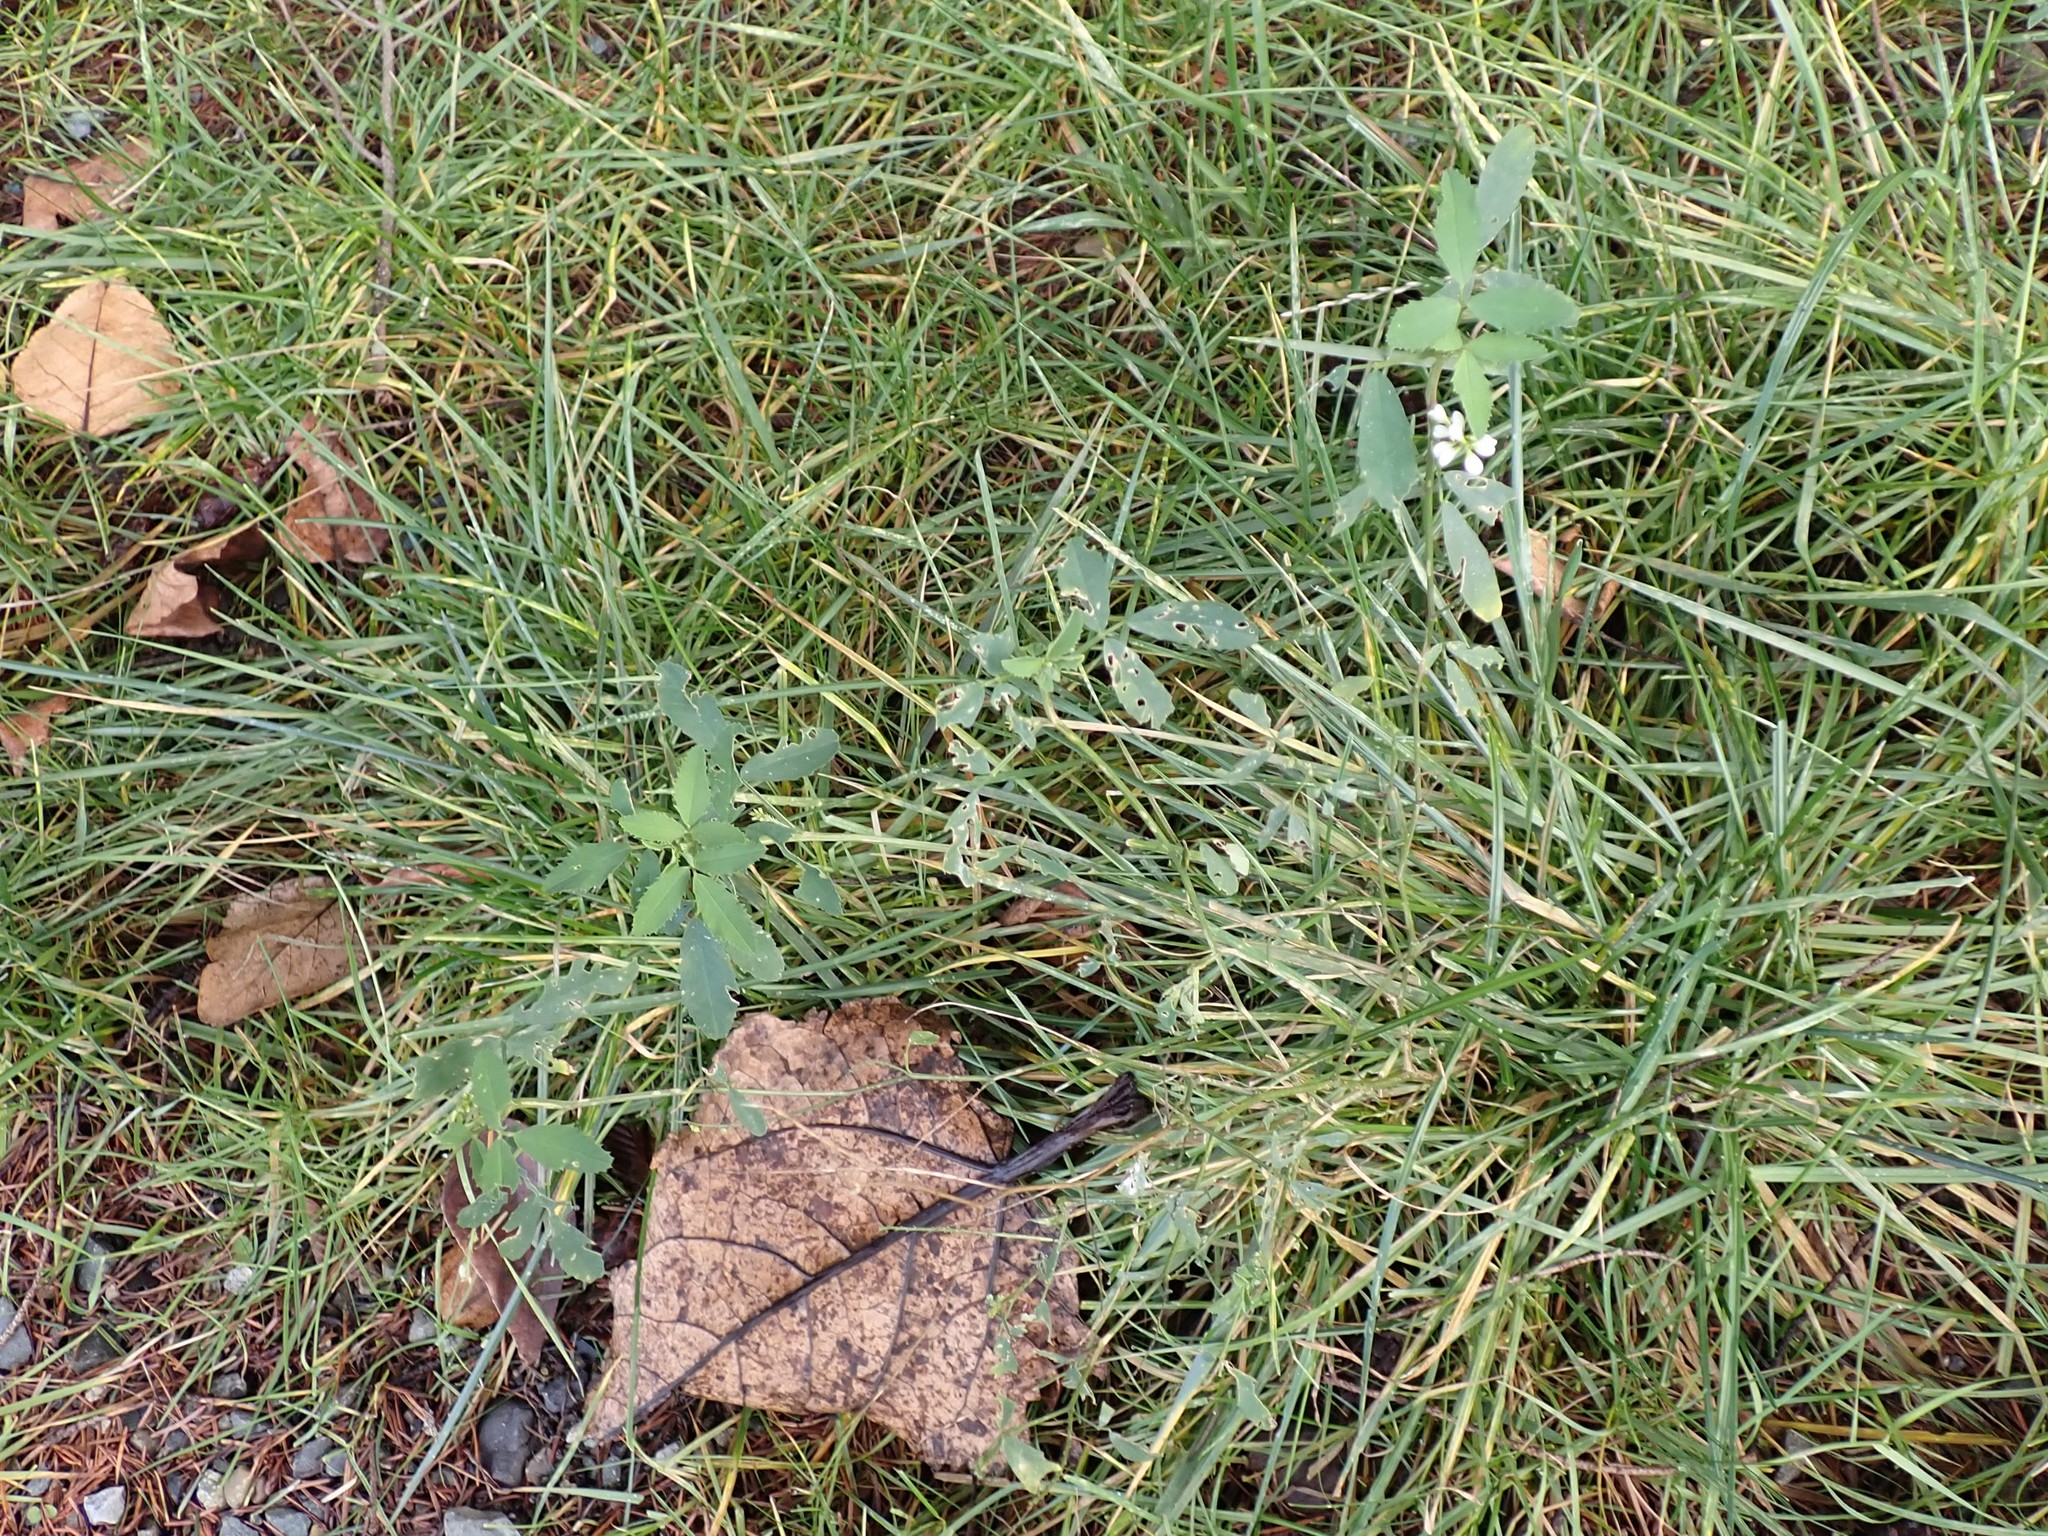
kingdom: Plantae
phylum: Tracheophyta
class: Magnoliopsida
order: Fabales
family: Fabaceae
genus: Melilotus
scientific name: Melilotus albus
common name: White melilot
